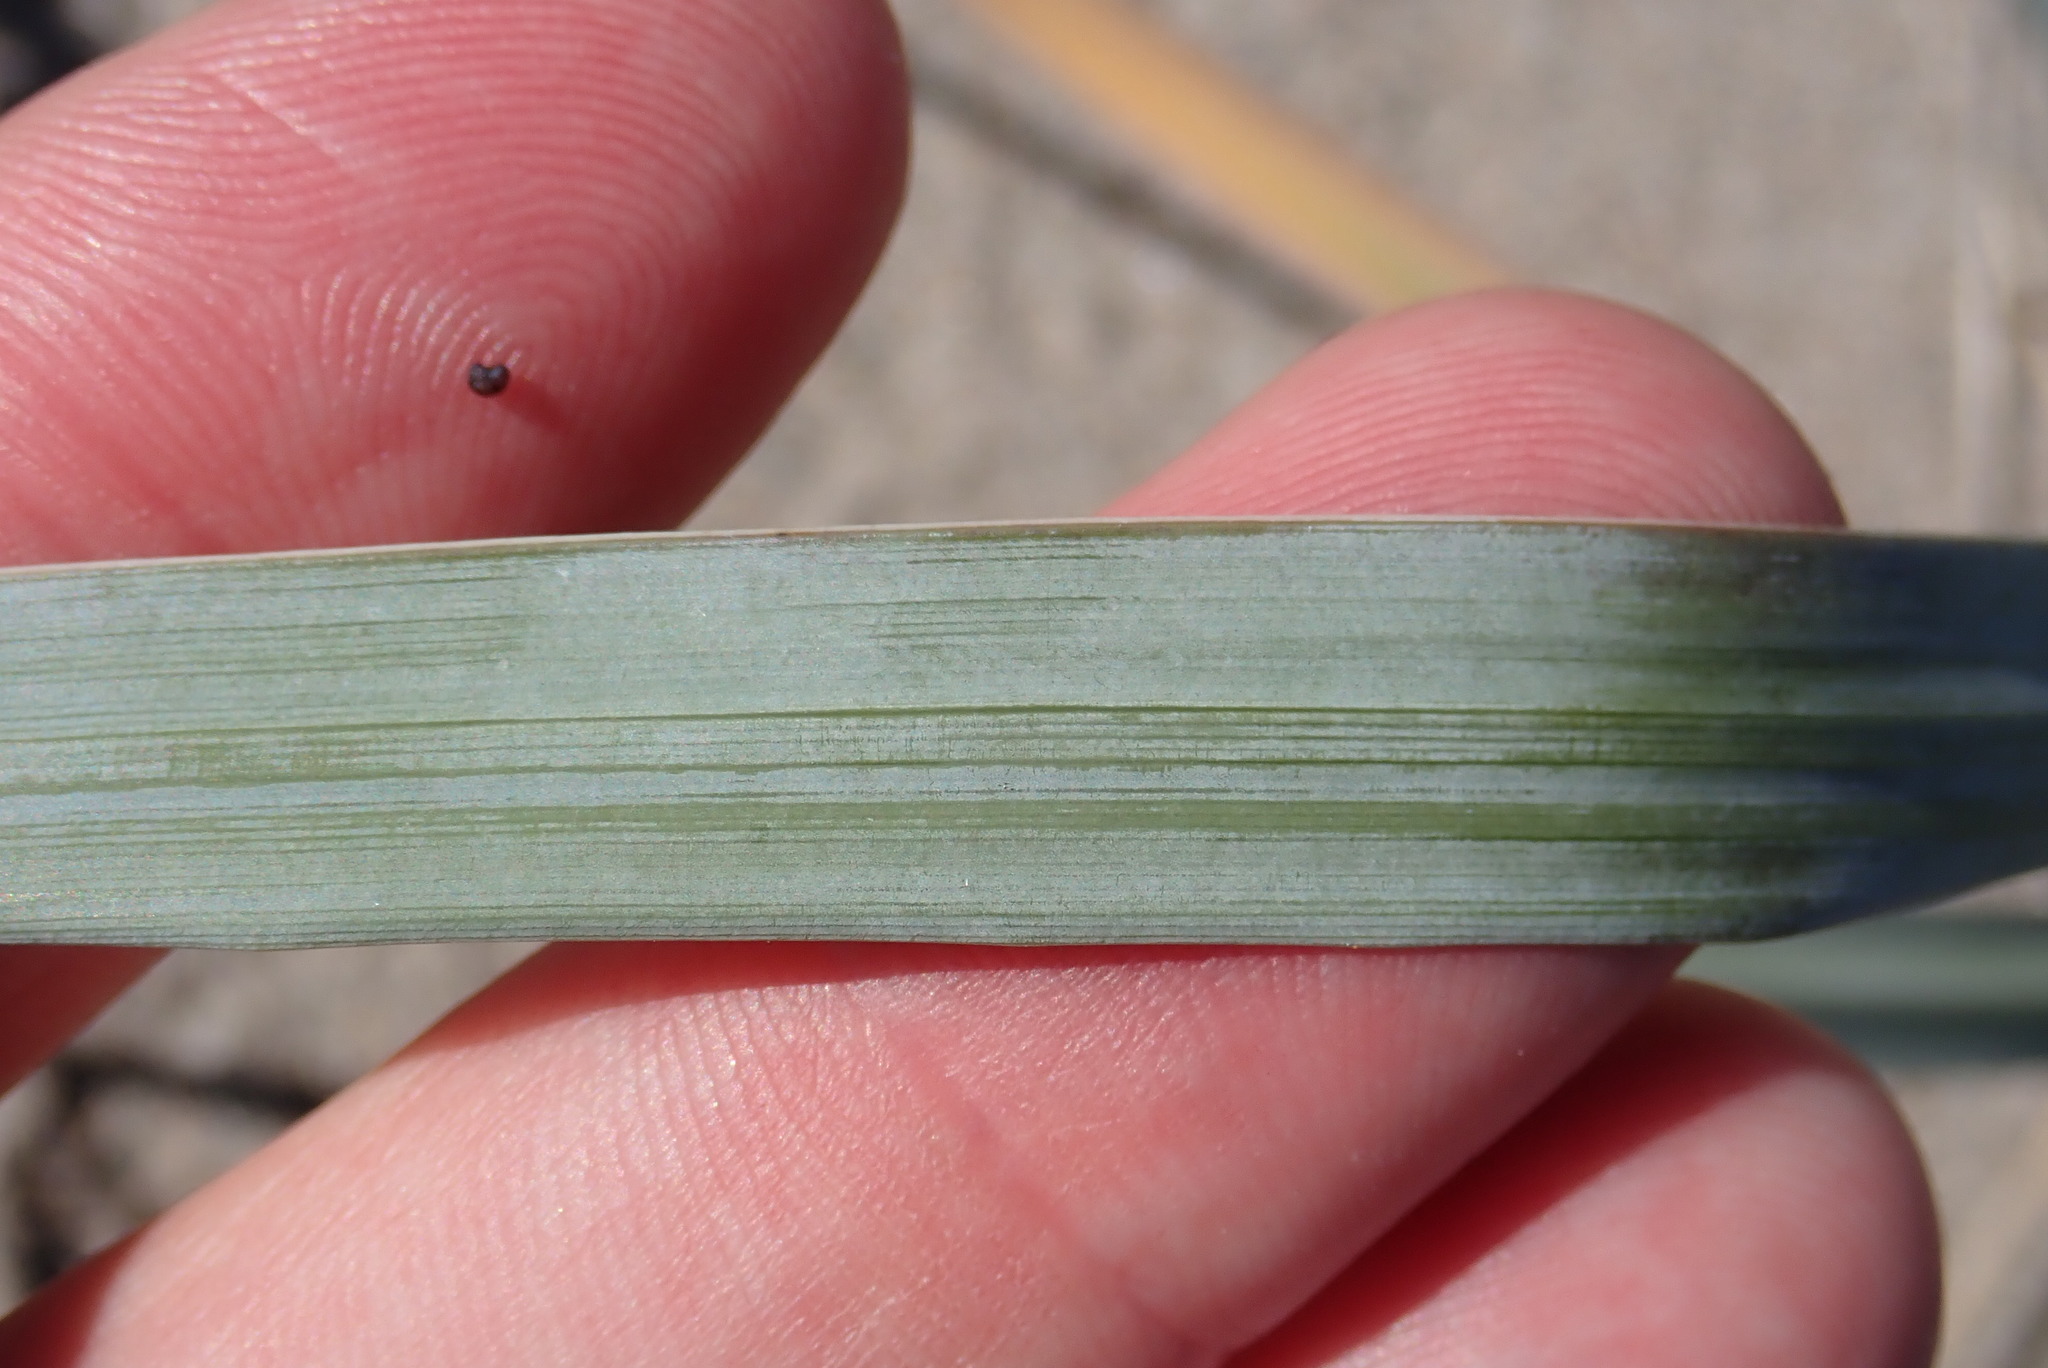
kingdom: Plantae
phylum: Tracheophyta
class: Liliopsida
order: Poales
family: Poaceae
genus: Leymus
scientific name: Leymus mollis
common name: American dune grass
